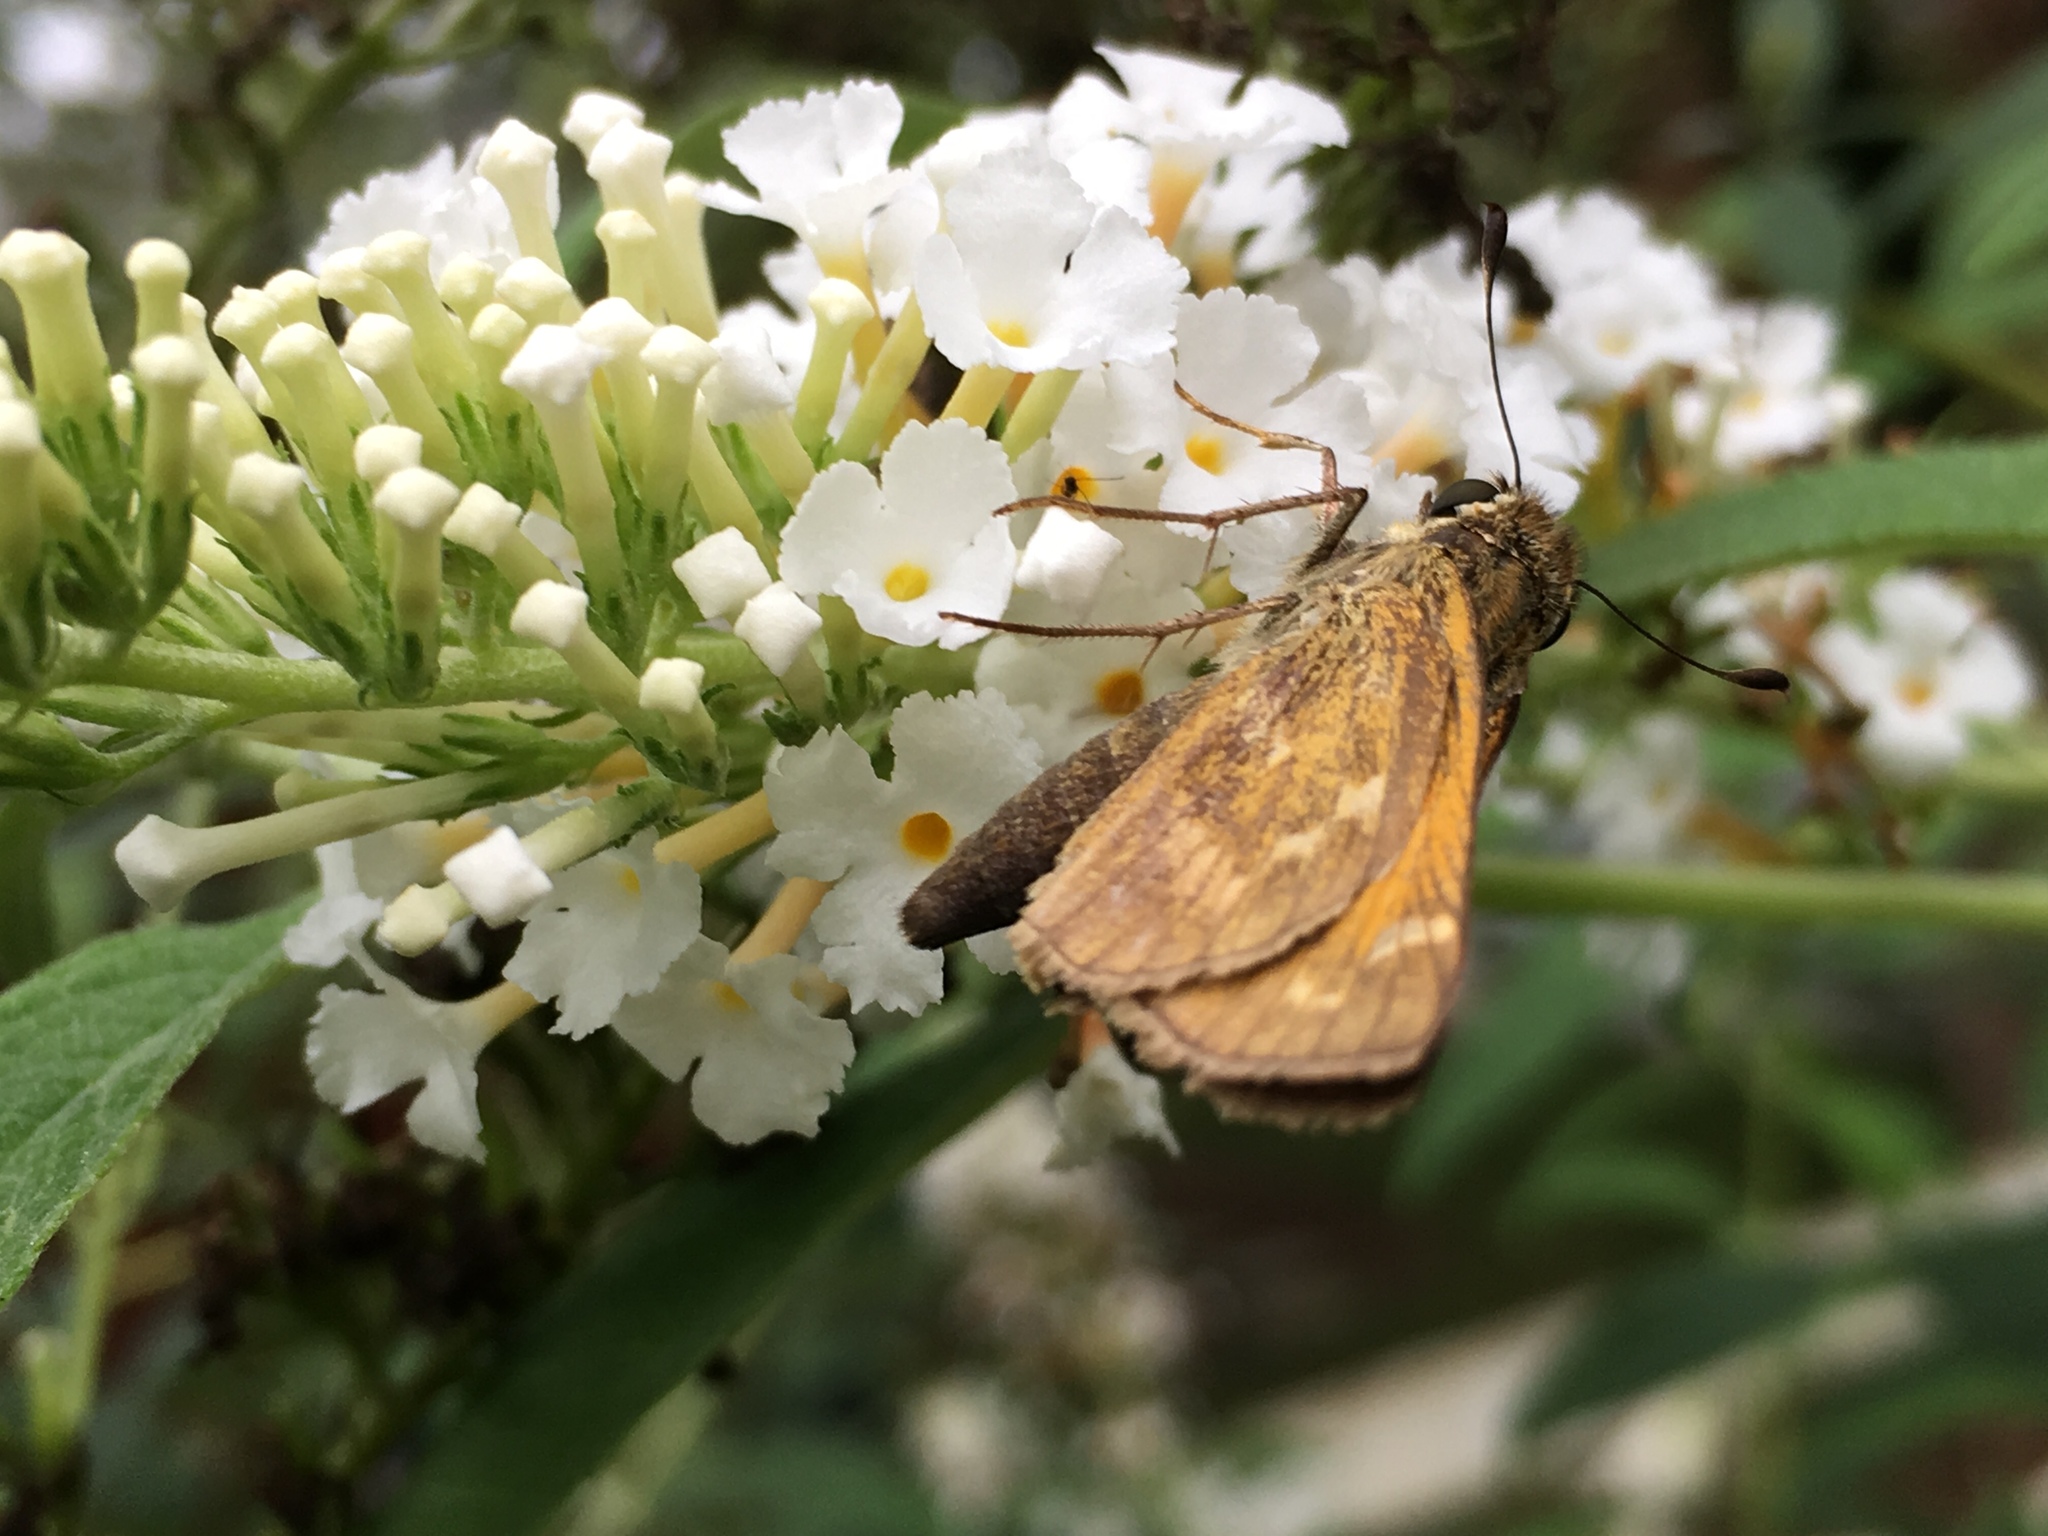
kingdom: Animalia
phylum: Arthropoda
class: Insecta
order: Lepidoptera
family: Hesperiidae
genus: Atalopedes
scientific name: Atalopedes
